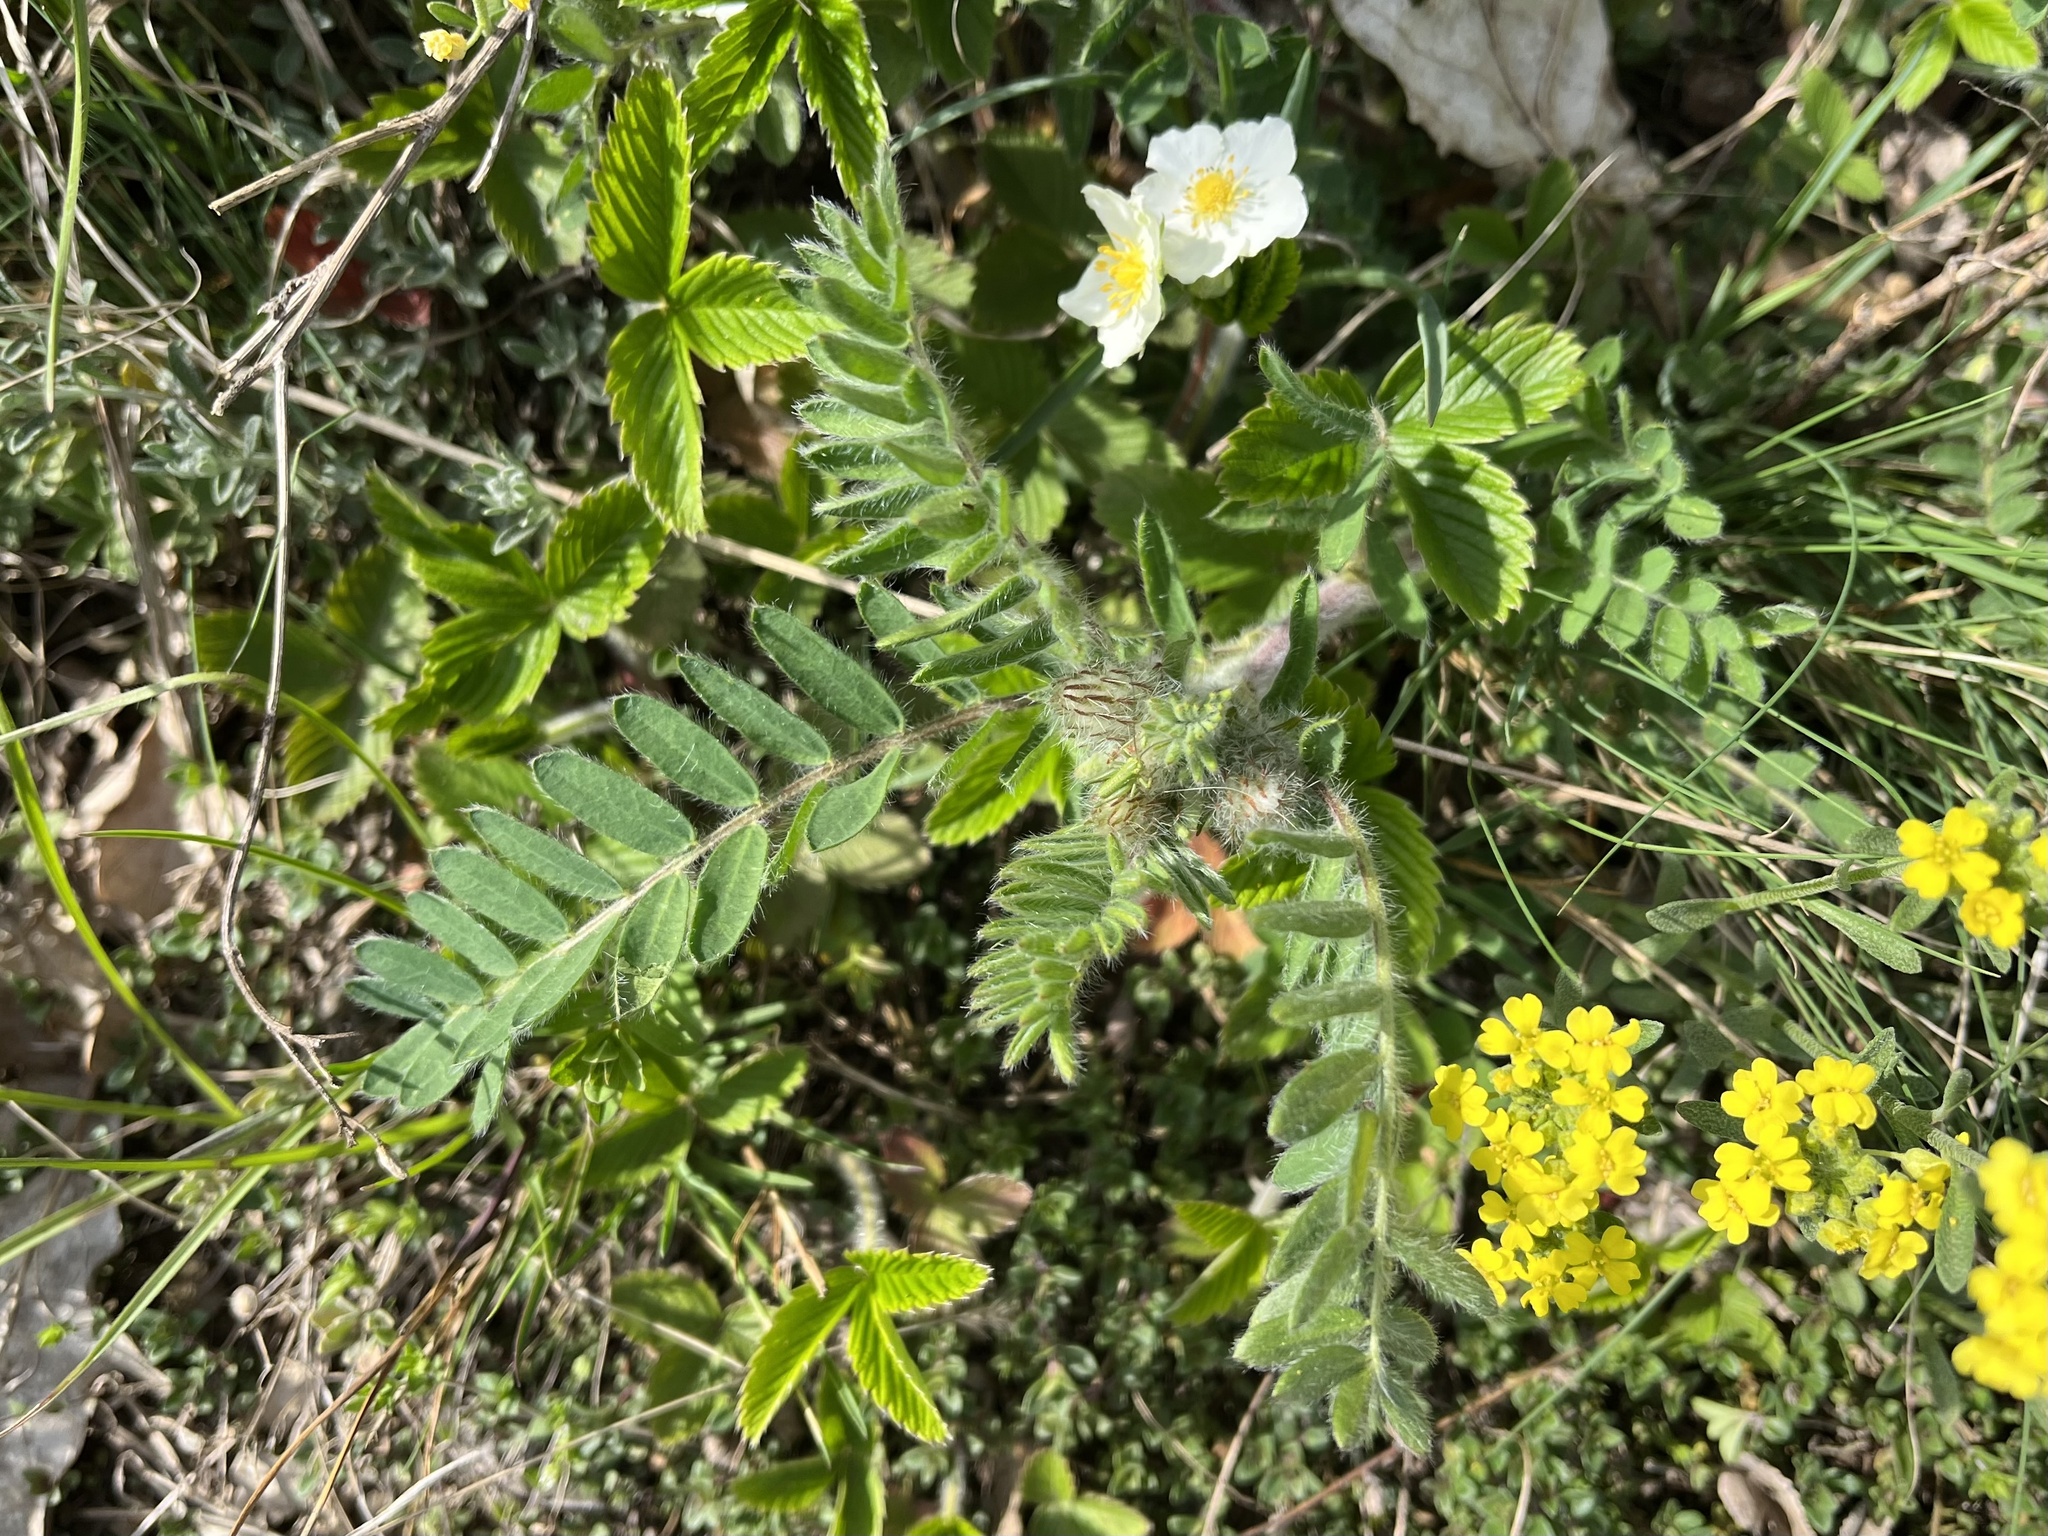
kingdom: Plantae
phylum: Tracheophyta
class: Magnoliopsida
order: Fabales
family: Fabaceae
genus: Oxytropis
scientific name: Oxytropis pilosa
